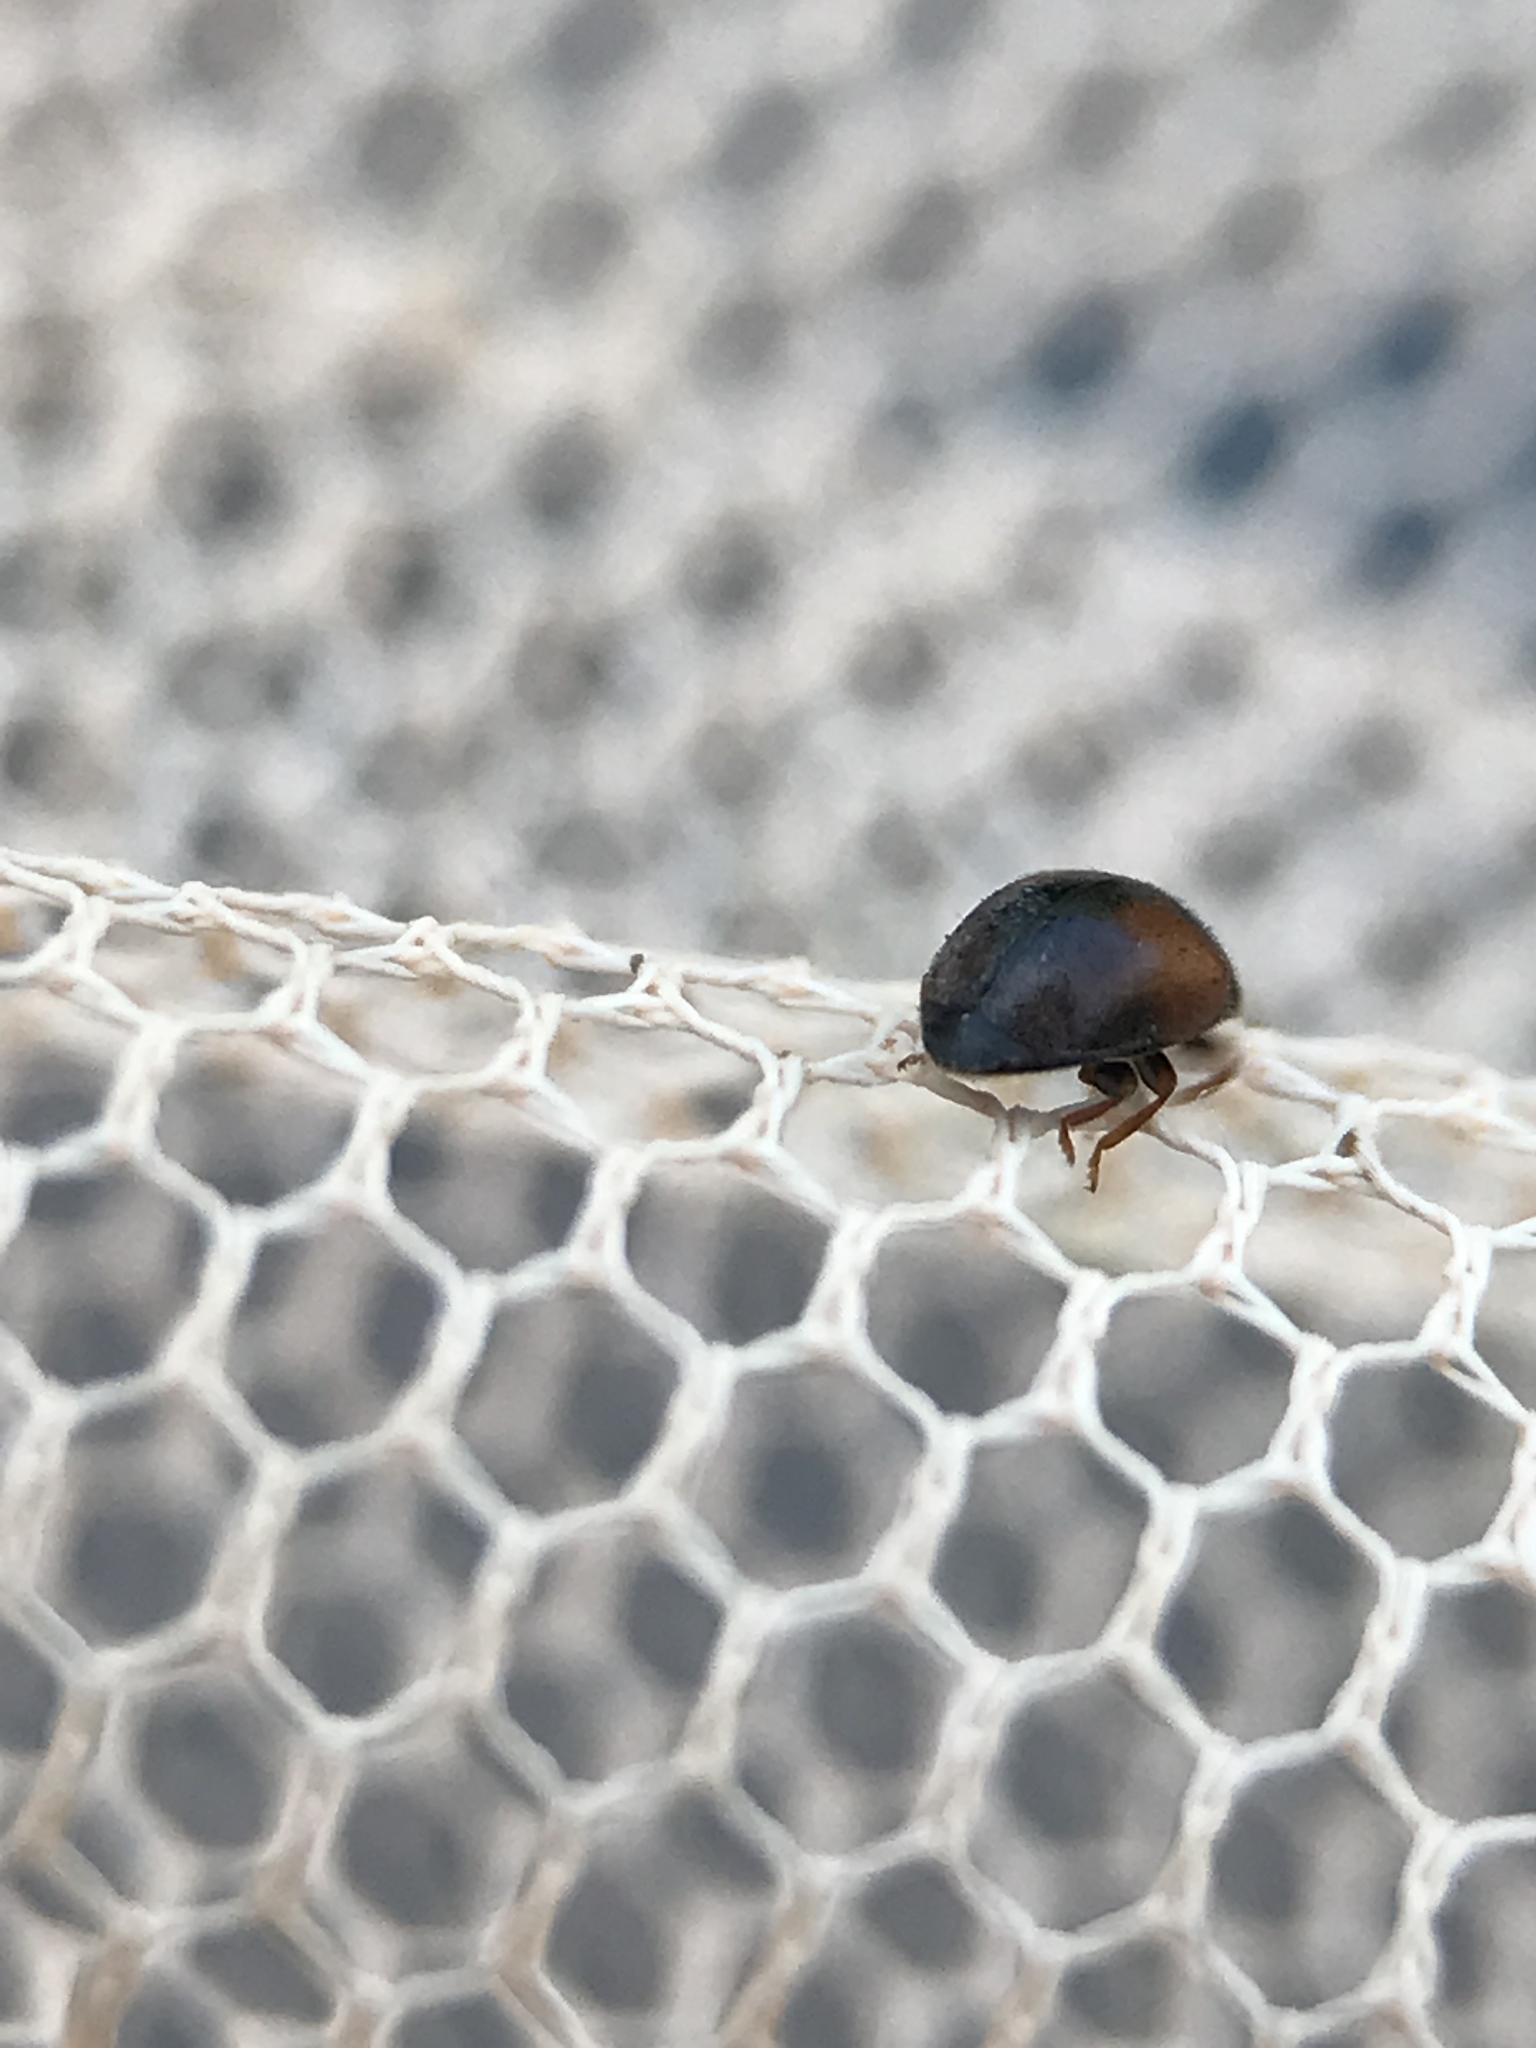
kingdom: Animalia
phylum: Arthropoda
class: Insecta
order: Coleoptera
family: Coccinellidae
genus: Scymnus
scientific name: Scymnus interruptus
